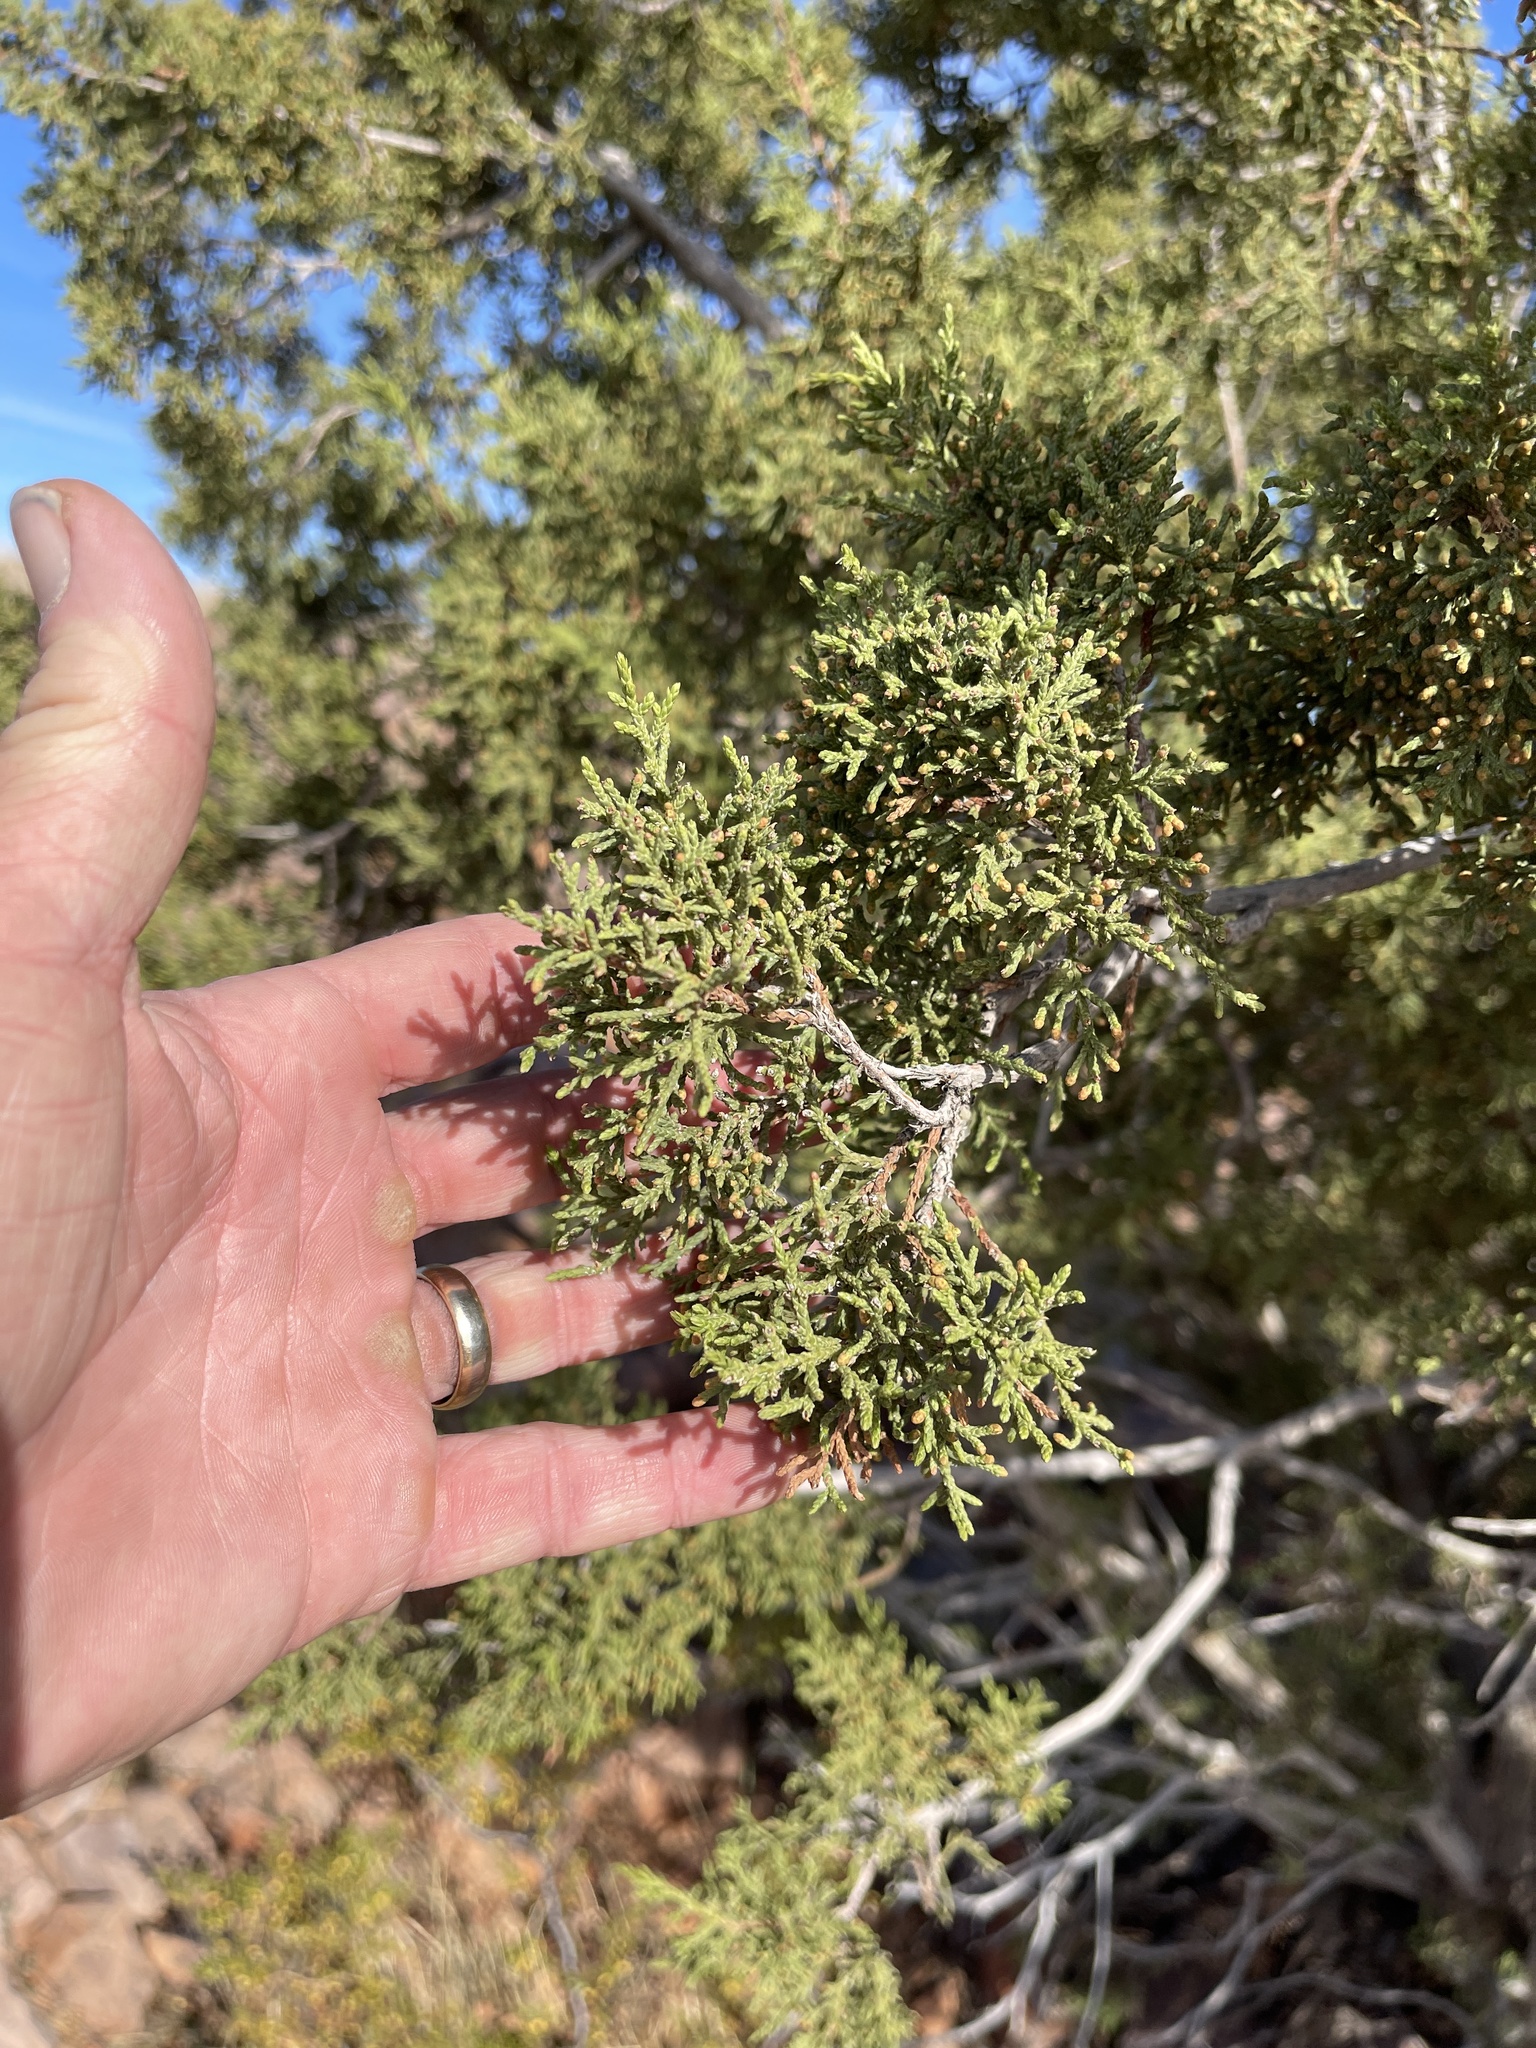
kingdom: Plantae
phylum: Tracheophyta
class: Pinopsida
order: Pinales
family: Cupressaceae
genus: Juniperus
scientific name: Juniperus monosperma
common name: One-seed juniper
